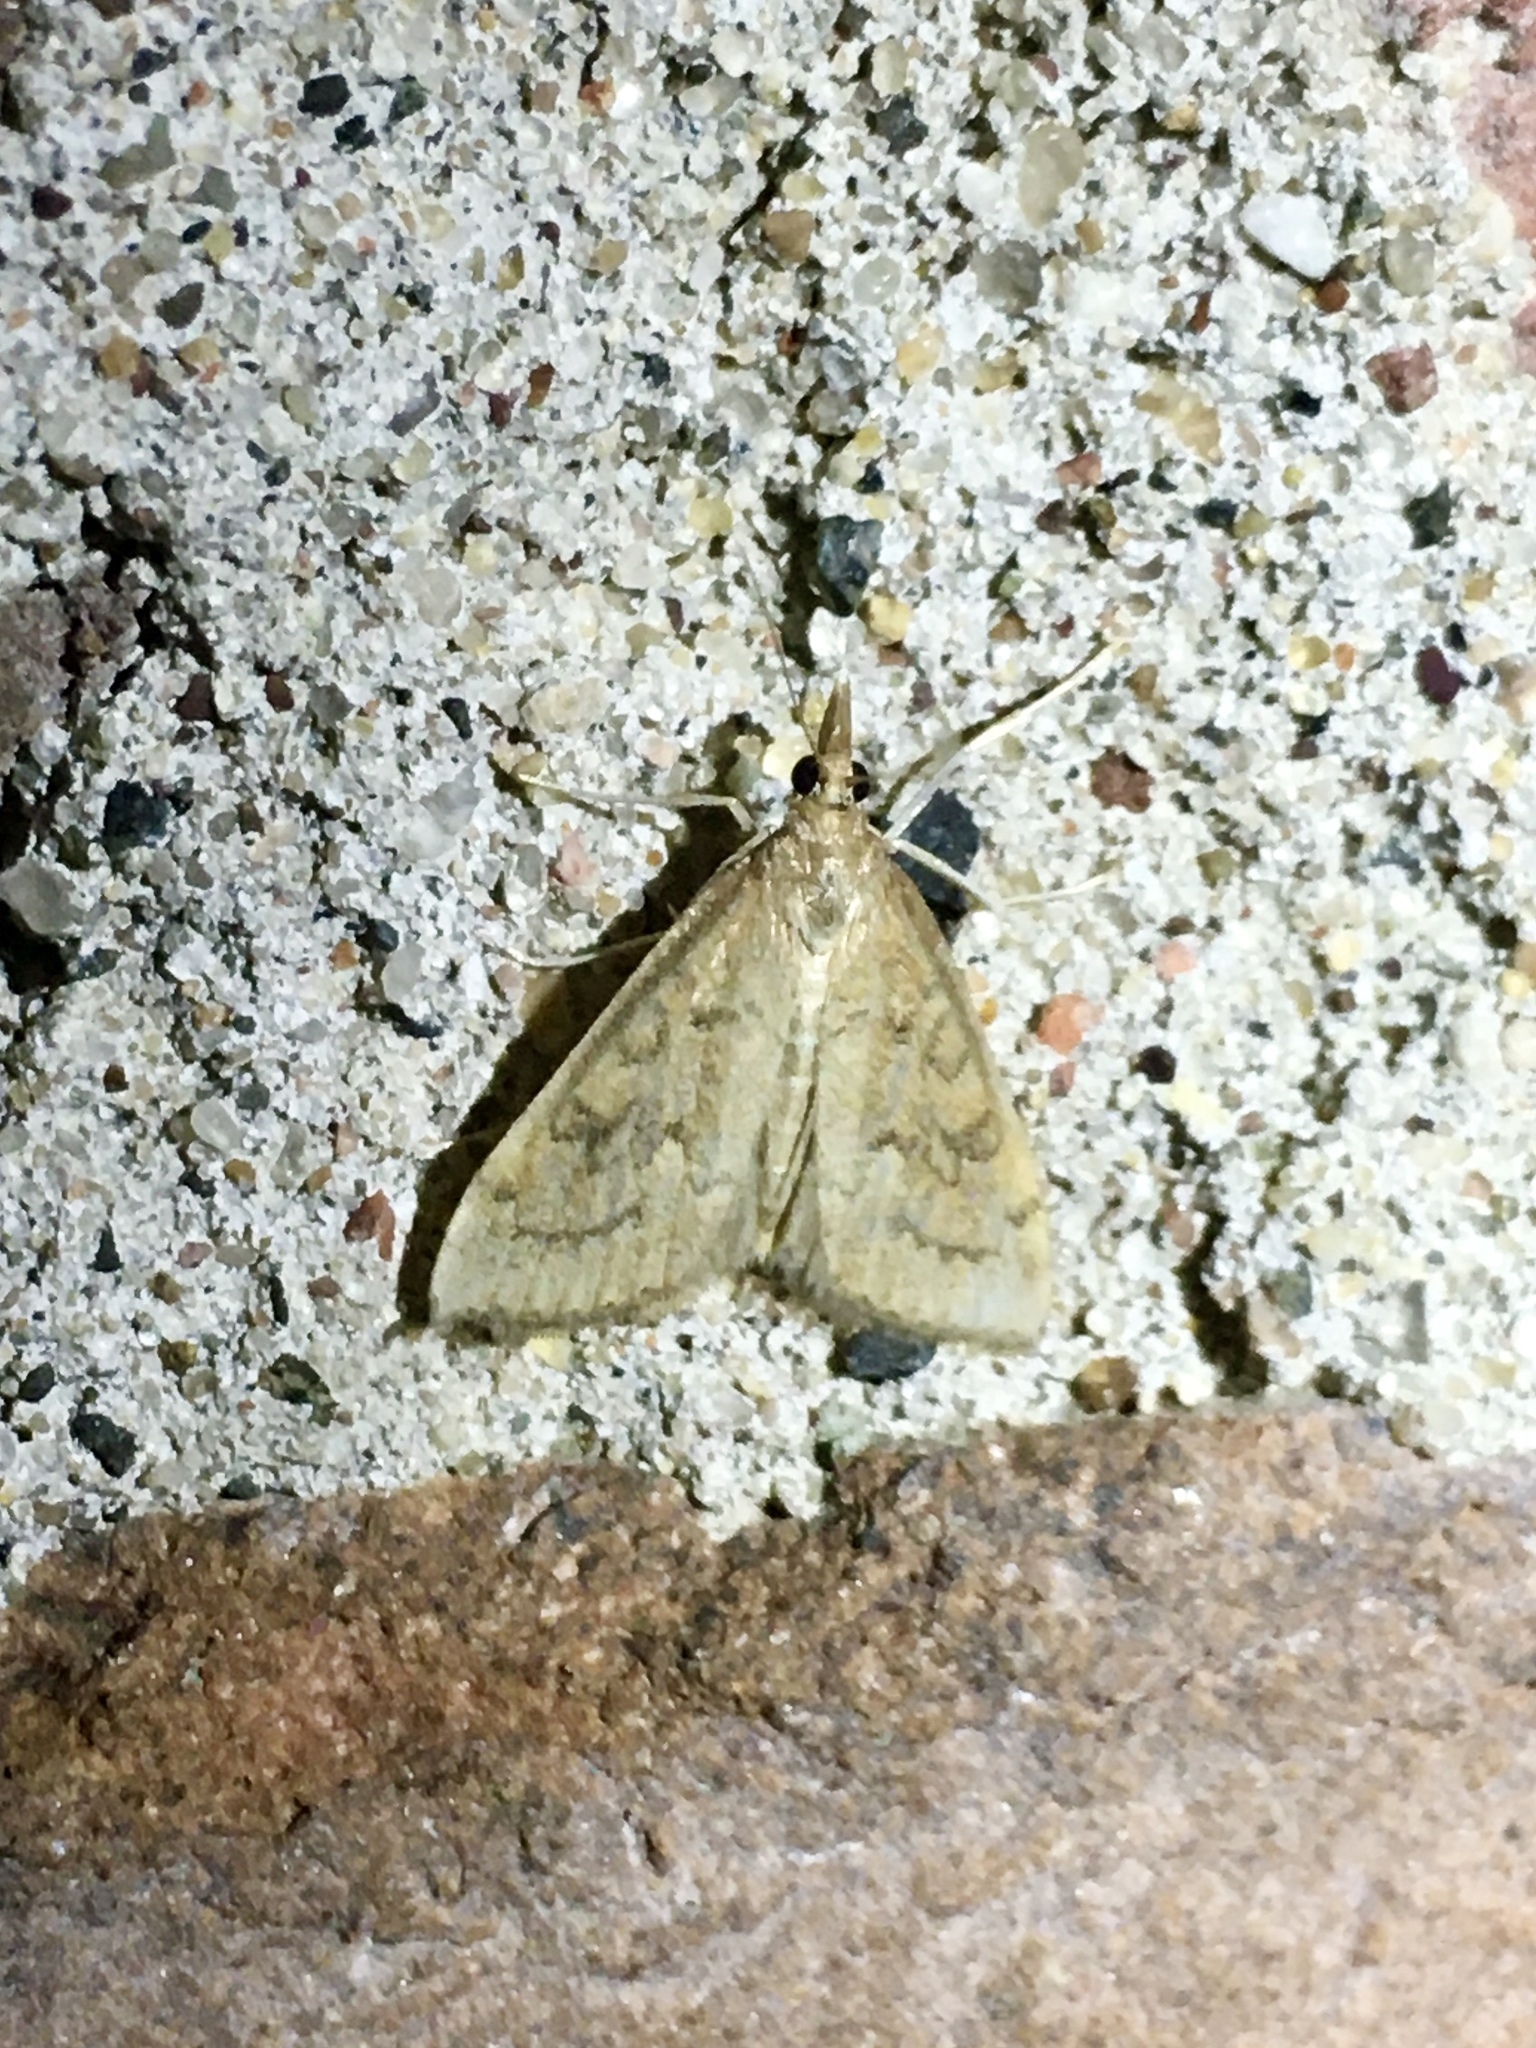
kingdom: Animalia
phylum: Arthropoda
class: Insecta
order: Lepidoptera
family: Crambidae
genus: Udea
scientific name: Udea rubigalis
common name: Celery leaftier moth
